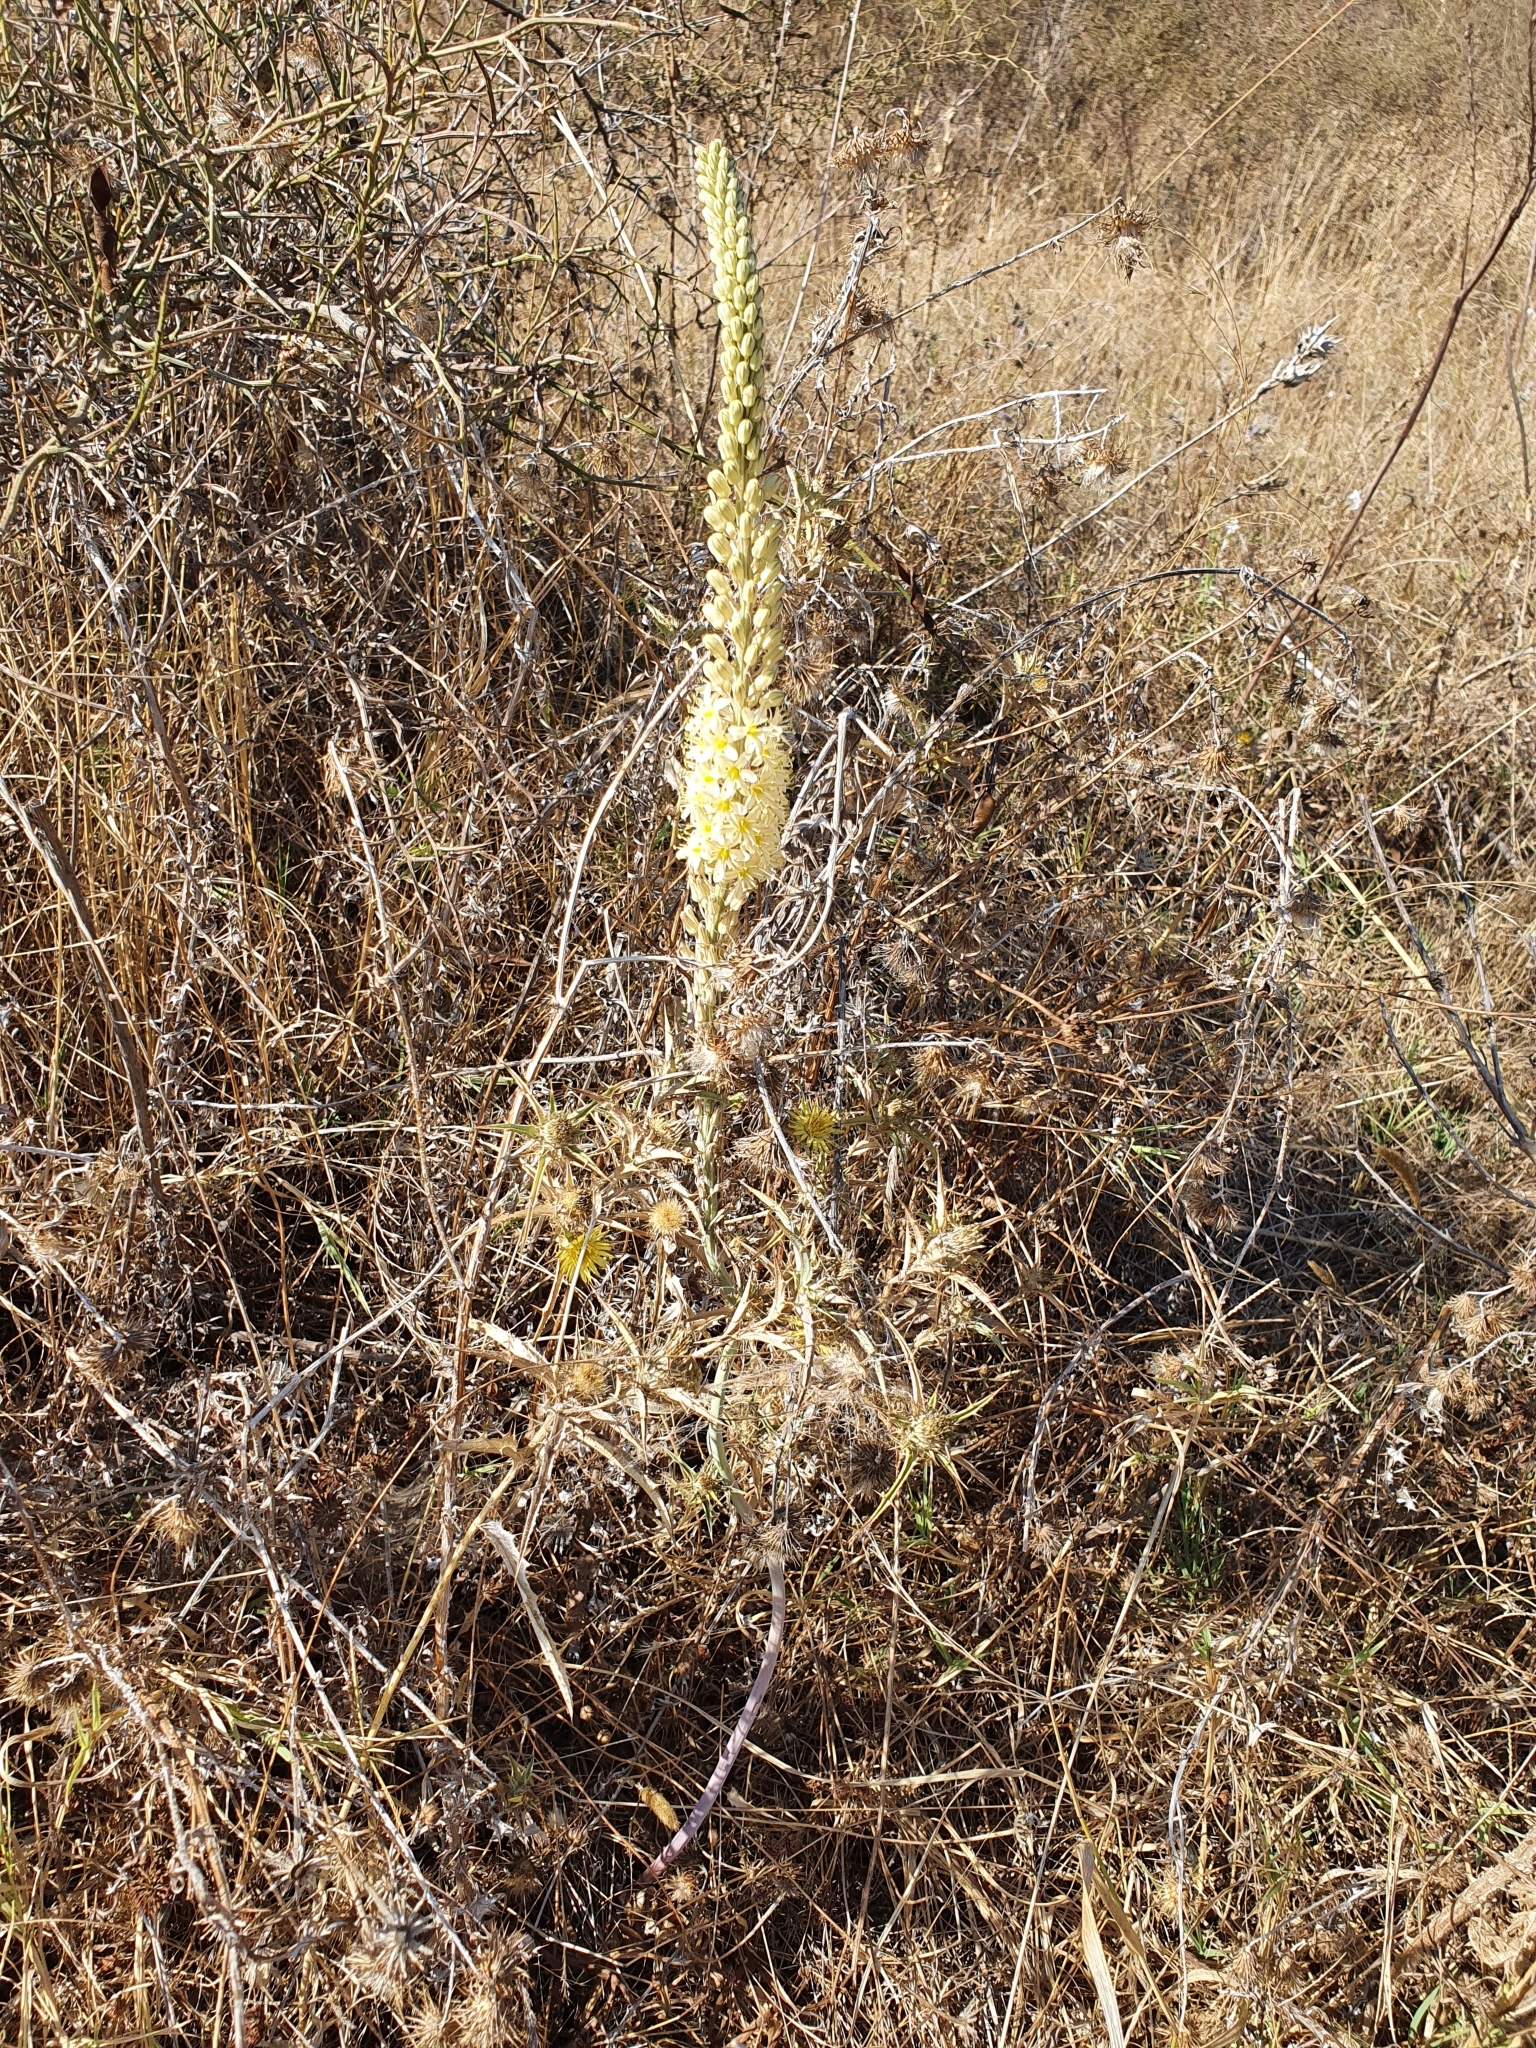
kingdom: Plantae
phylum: Tracheophyta
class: Liliopsida
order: Asparagales
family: Asparagaceae
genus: Drimia
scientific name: Drimia anthericoides
